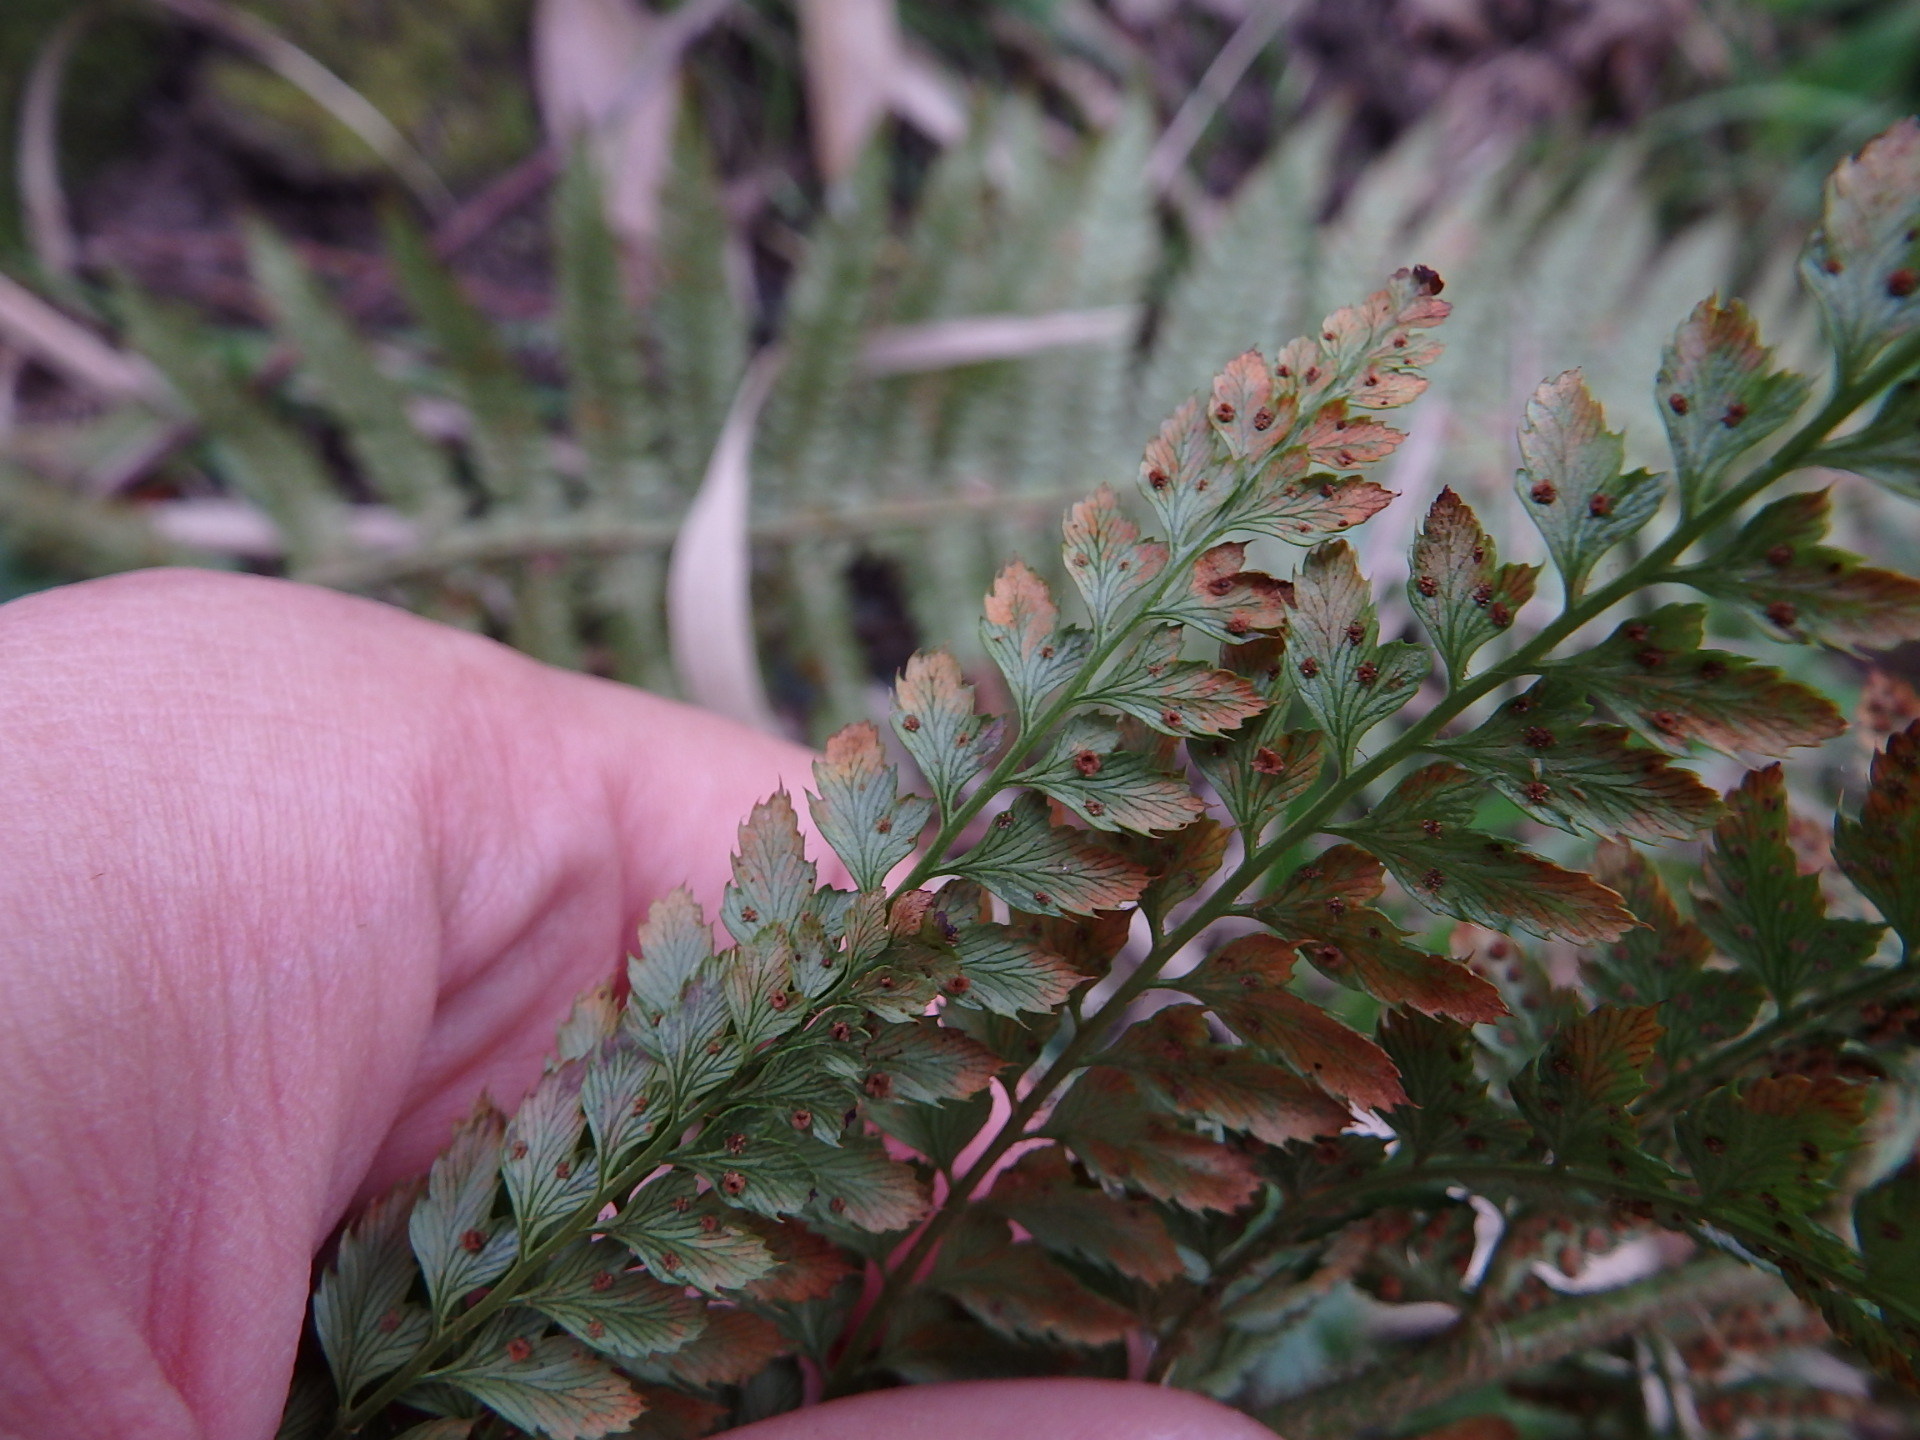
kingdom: Plantae
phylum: Tracheophyta
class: Polypodiopsida
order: Polypodiales
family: Dryopteridaceae
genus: Polystichum
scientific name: Polystichum setiferum
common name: Soft shield-fern
